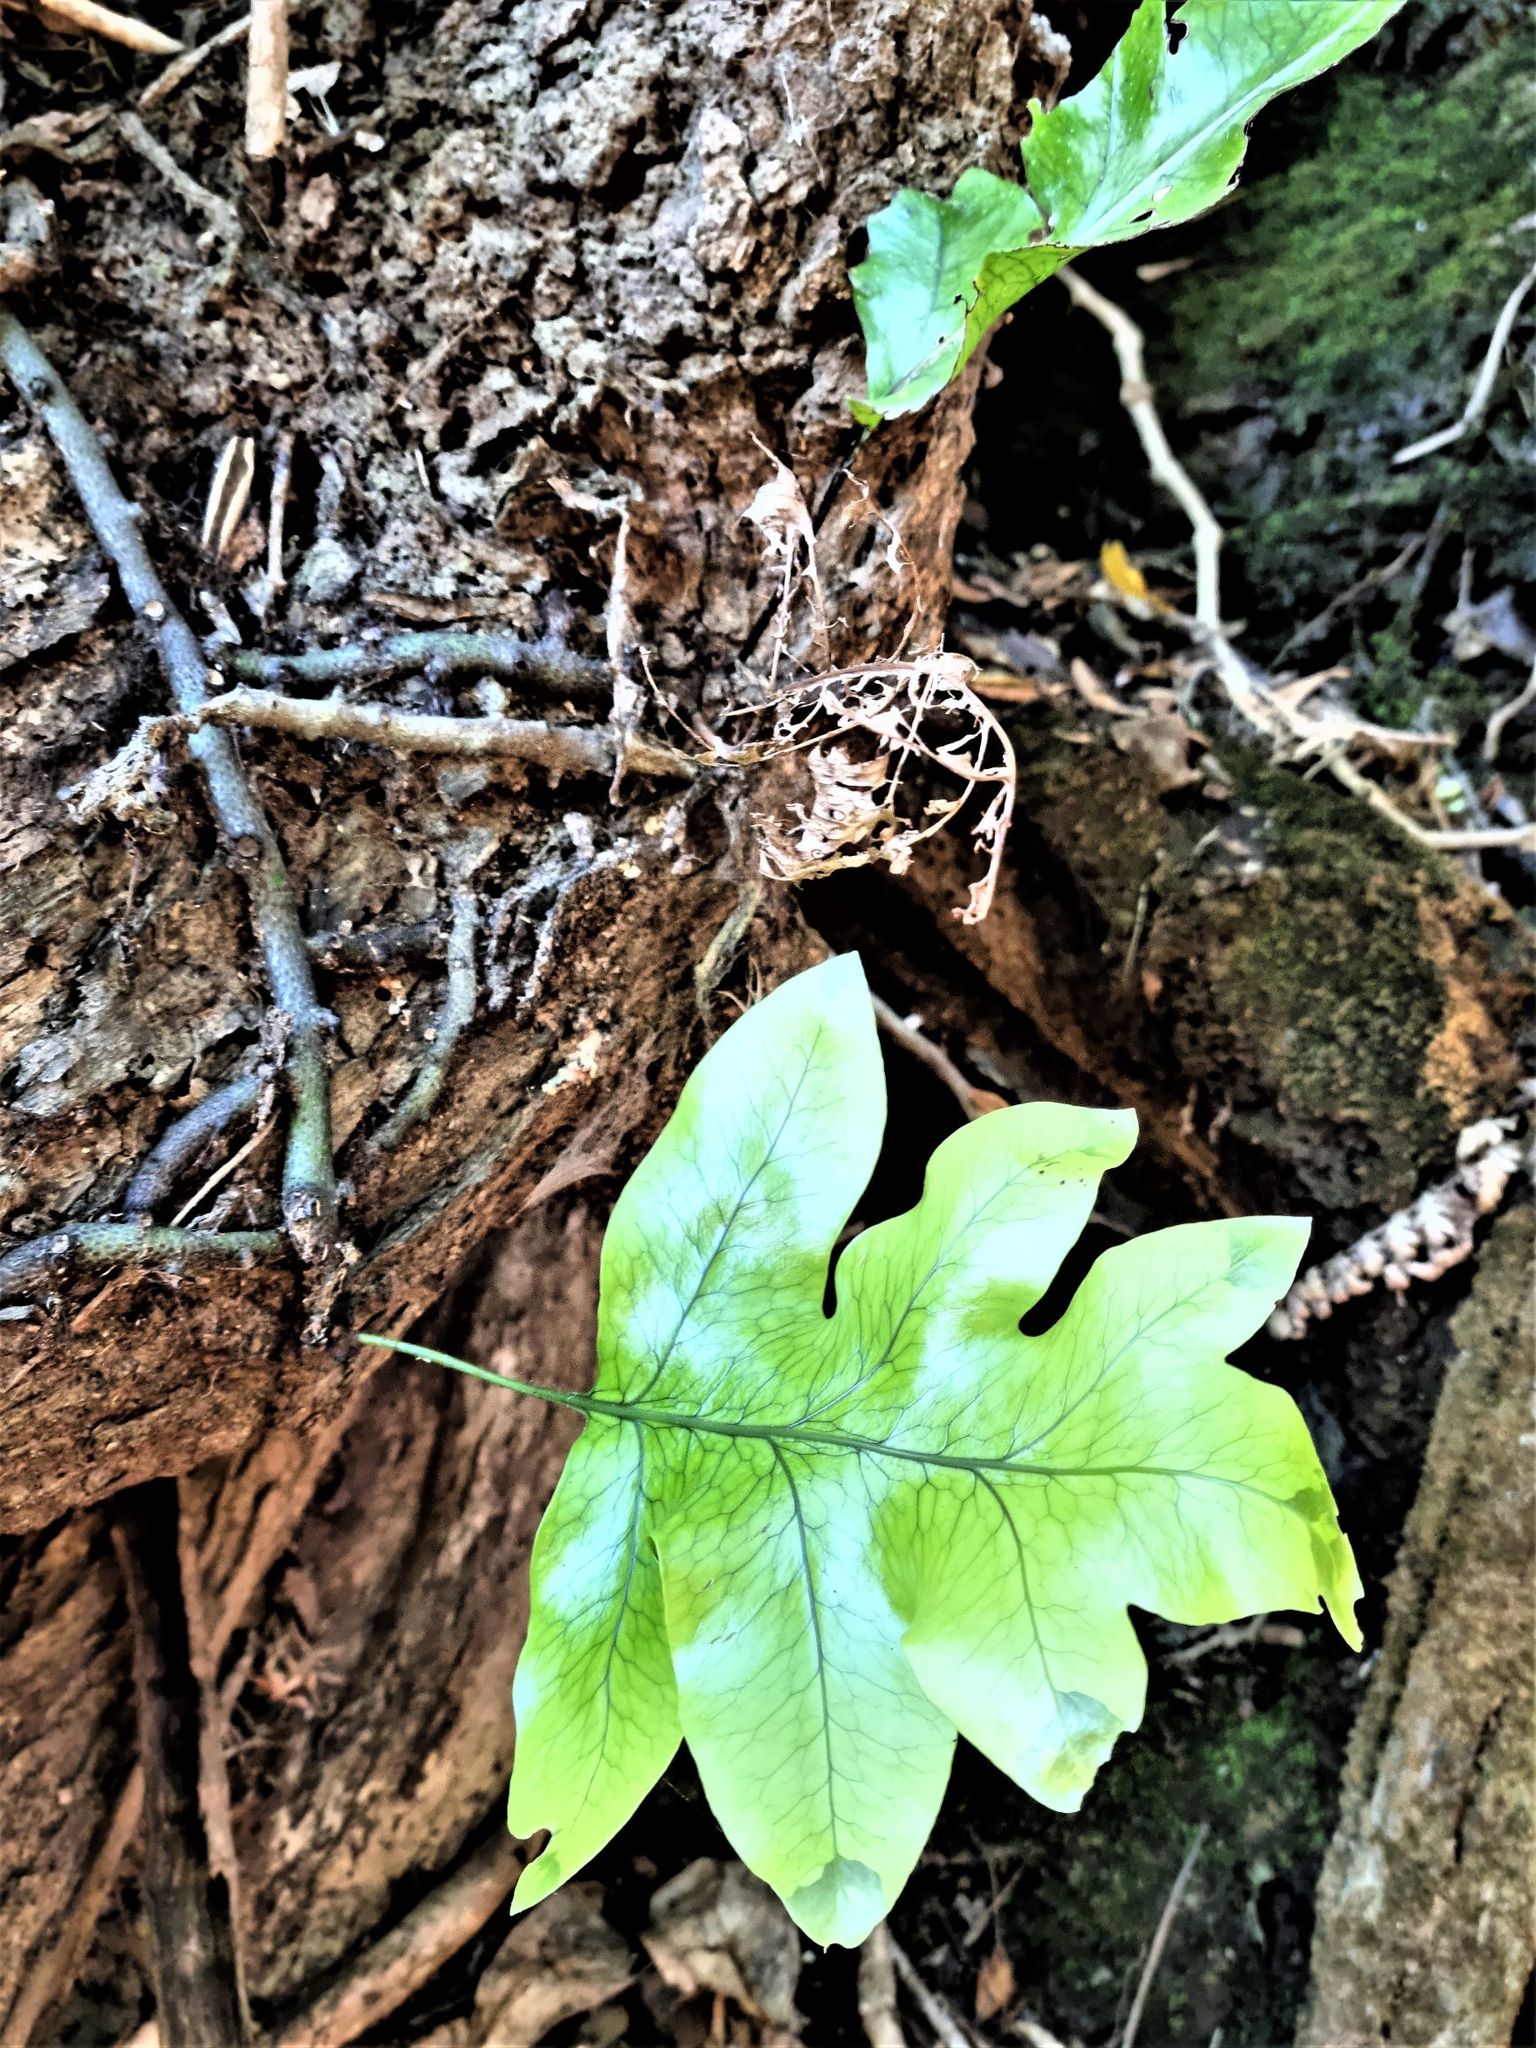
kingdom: Plantae
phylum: Tracheophyta
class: Polypodiopsida
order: Polypodiales
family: Polypodiaceae
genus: Lecanopteris
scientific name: Lecanopteris pustulata
